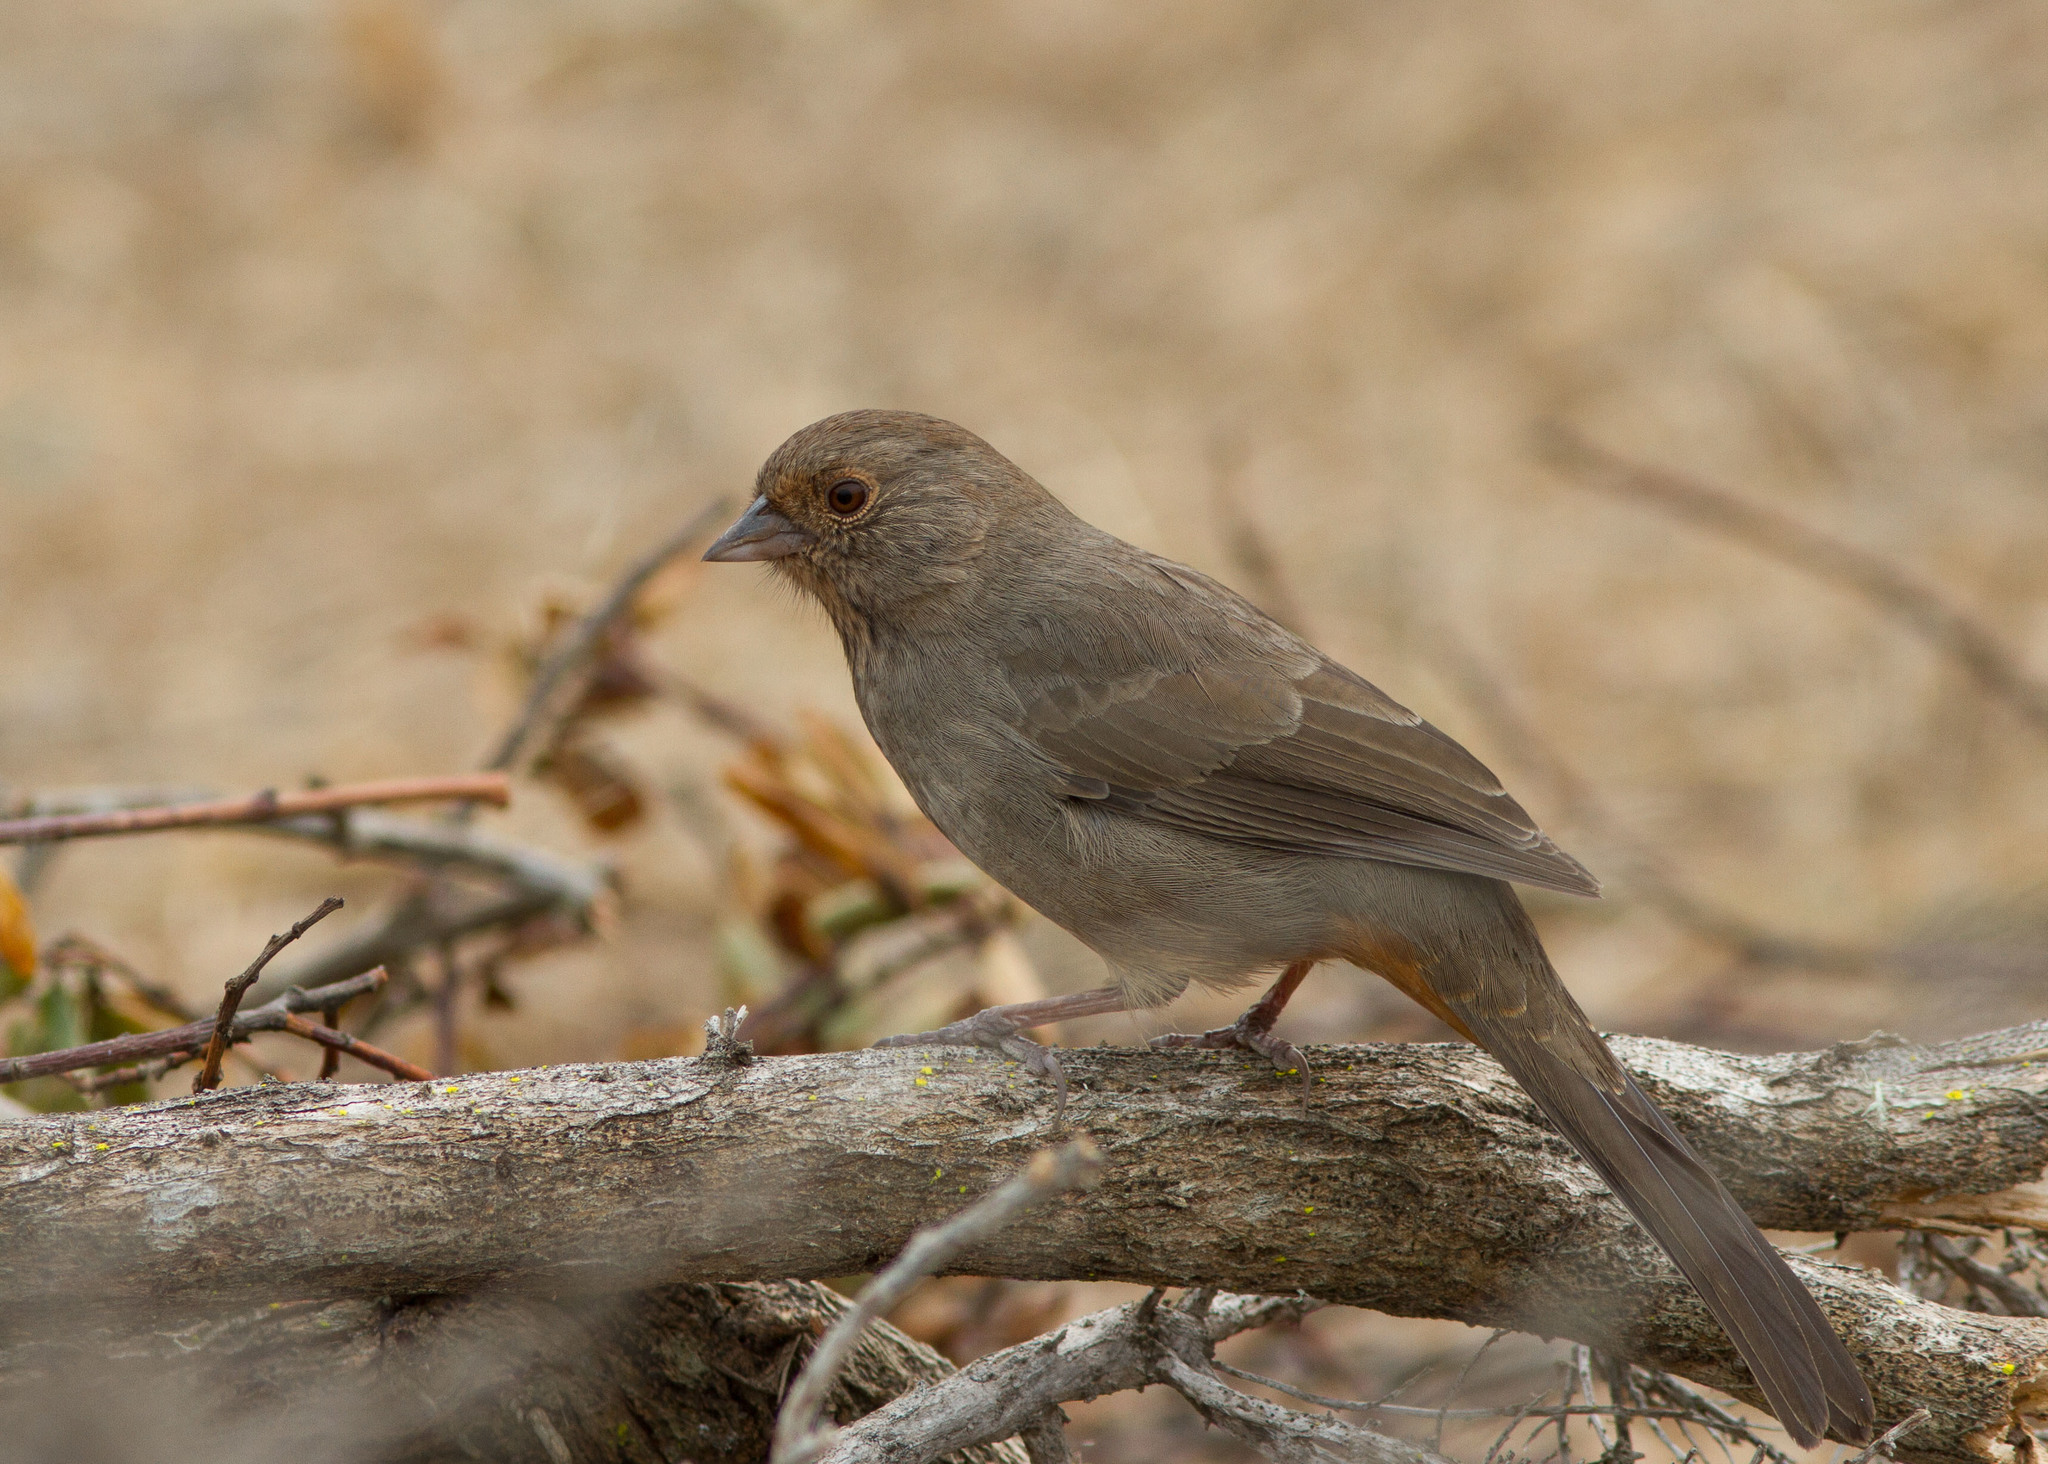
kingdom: Animalia
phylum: Chordata
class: Aves
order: Passeriformes
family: Passerellidae
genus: Melozone
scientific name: Melozone crissalis
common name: California towhee
